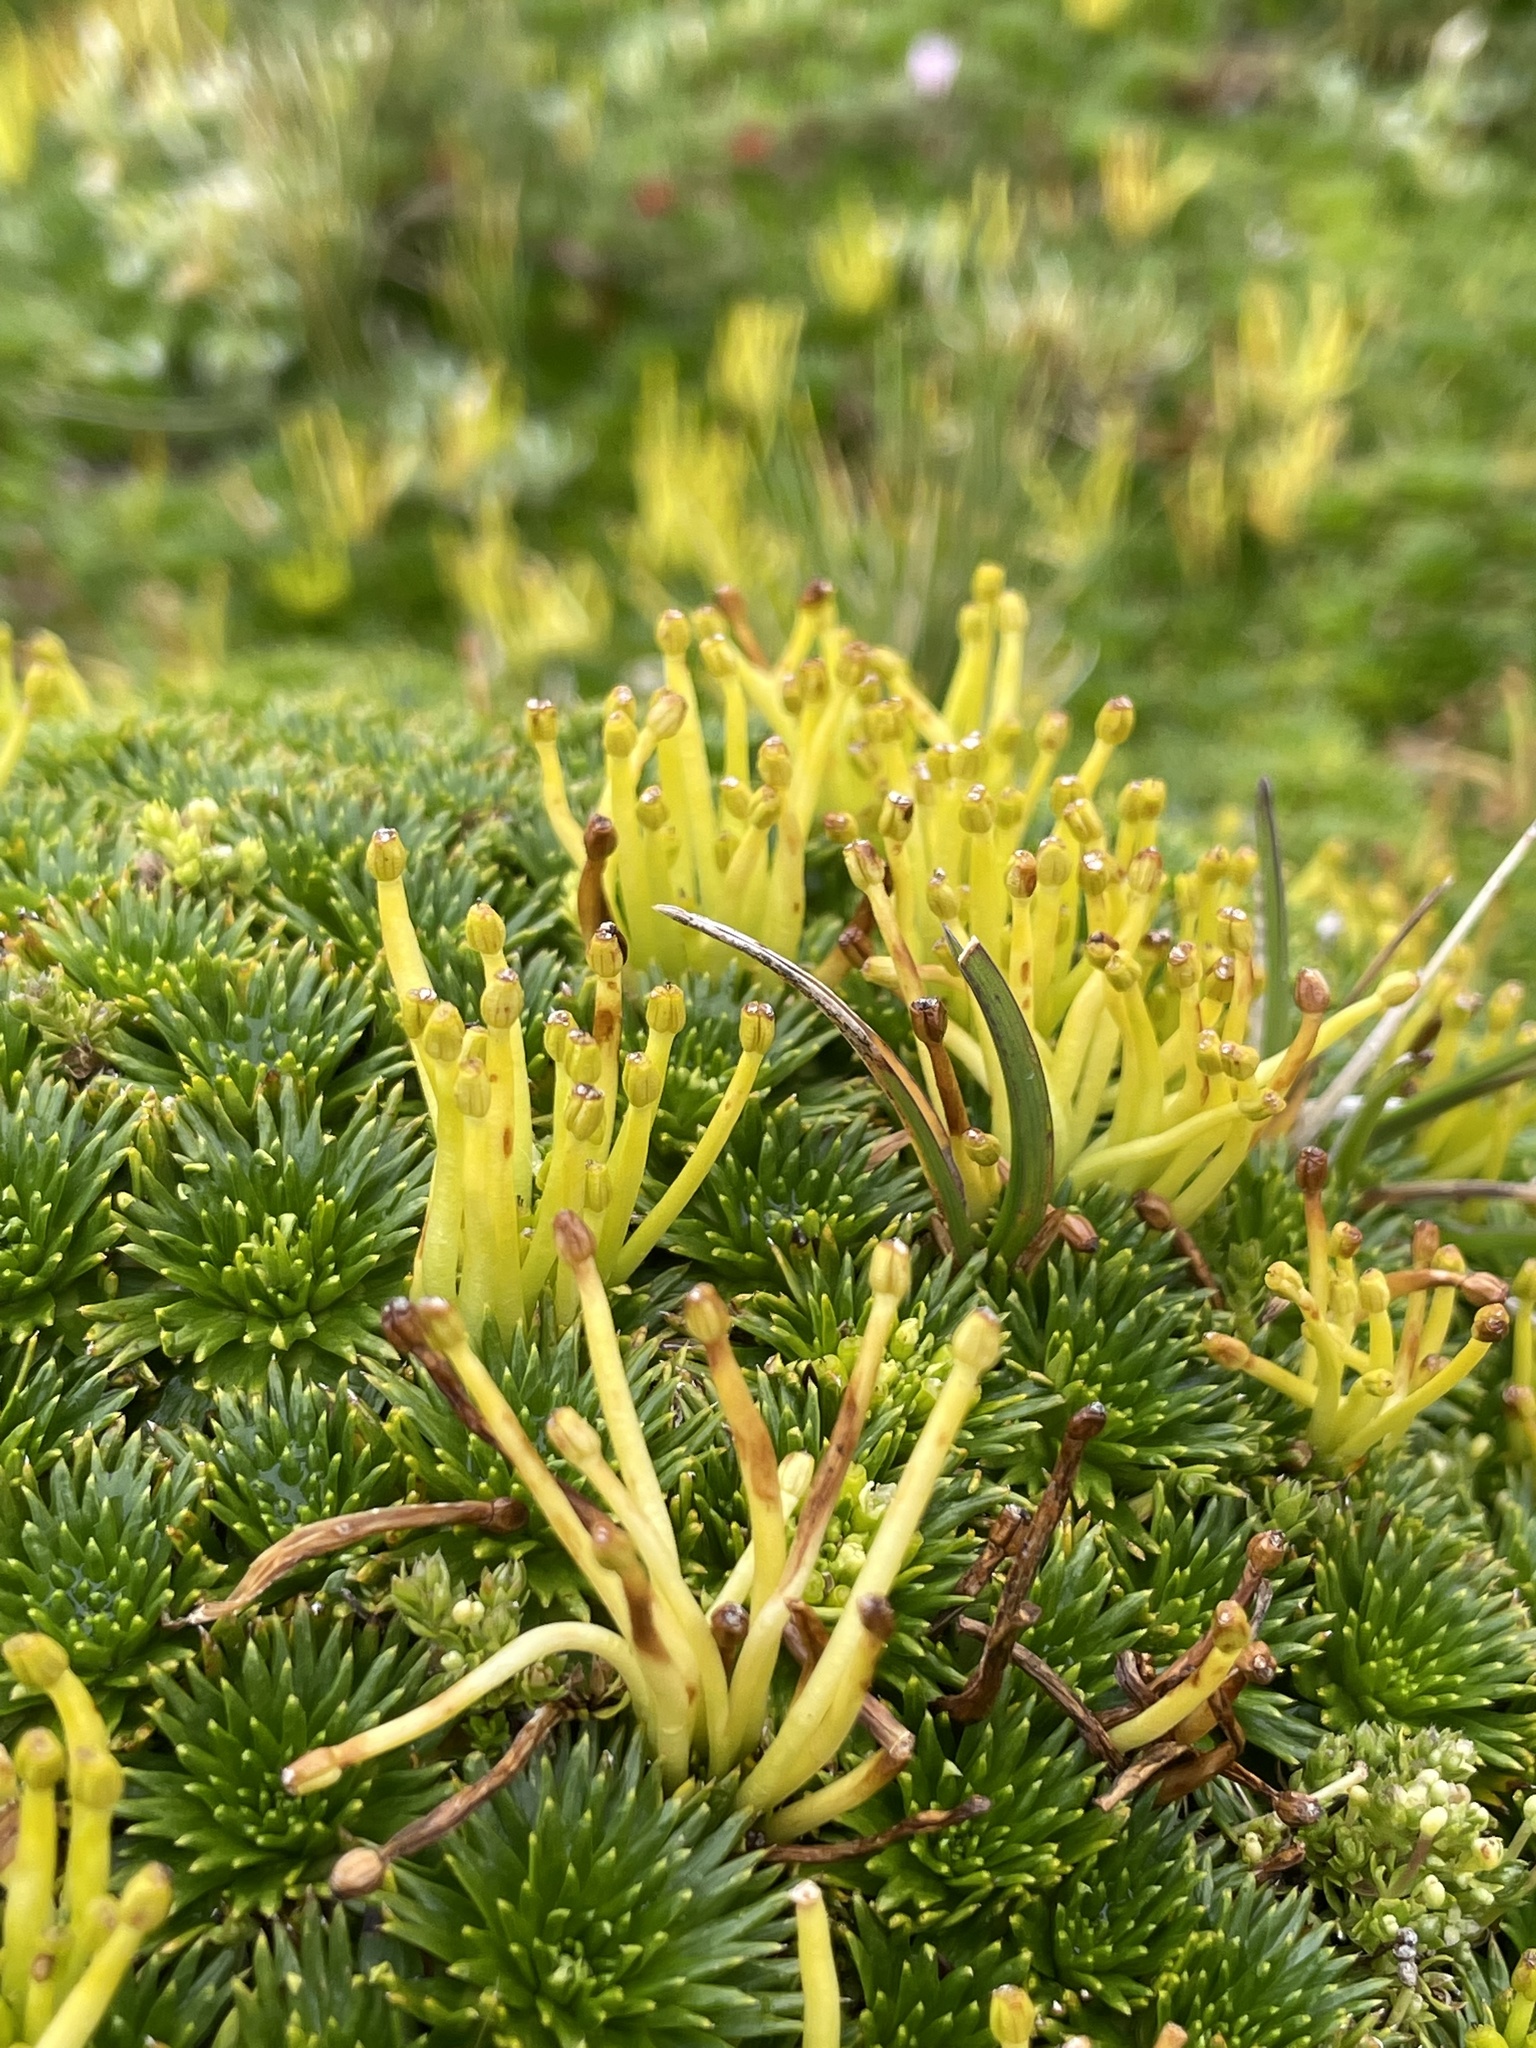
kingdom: Plantae
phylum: Tracheophyta
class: Magnoliopsida
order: Apiales
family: Apiaceae
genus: Azorella
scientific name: Azorella pedunculata
